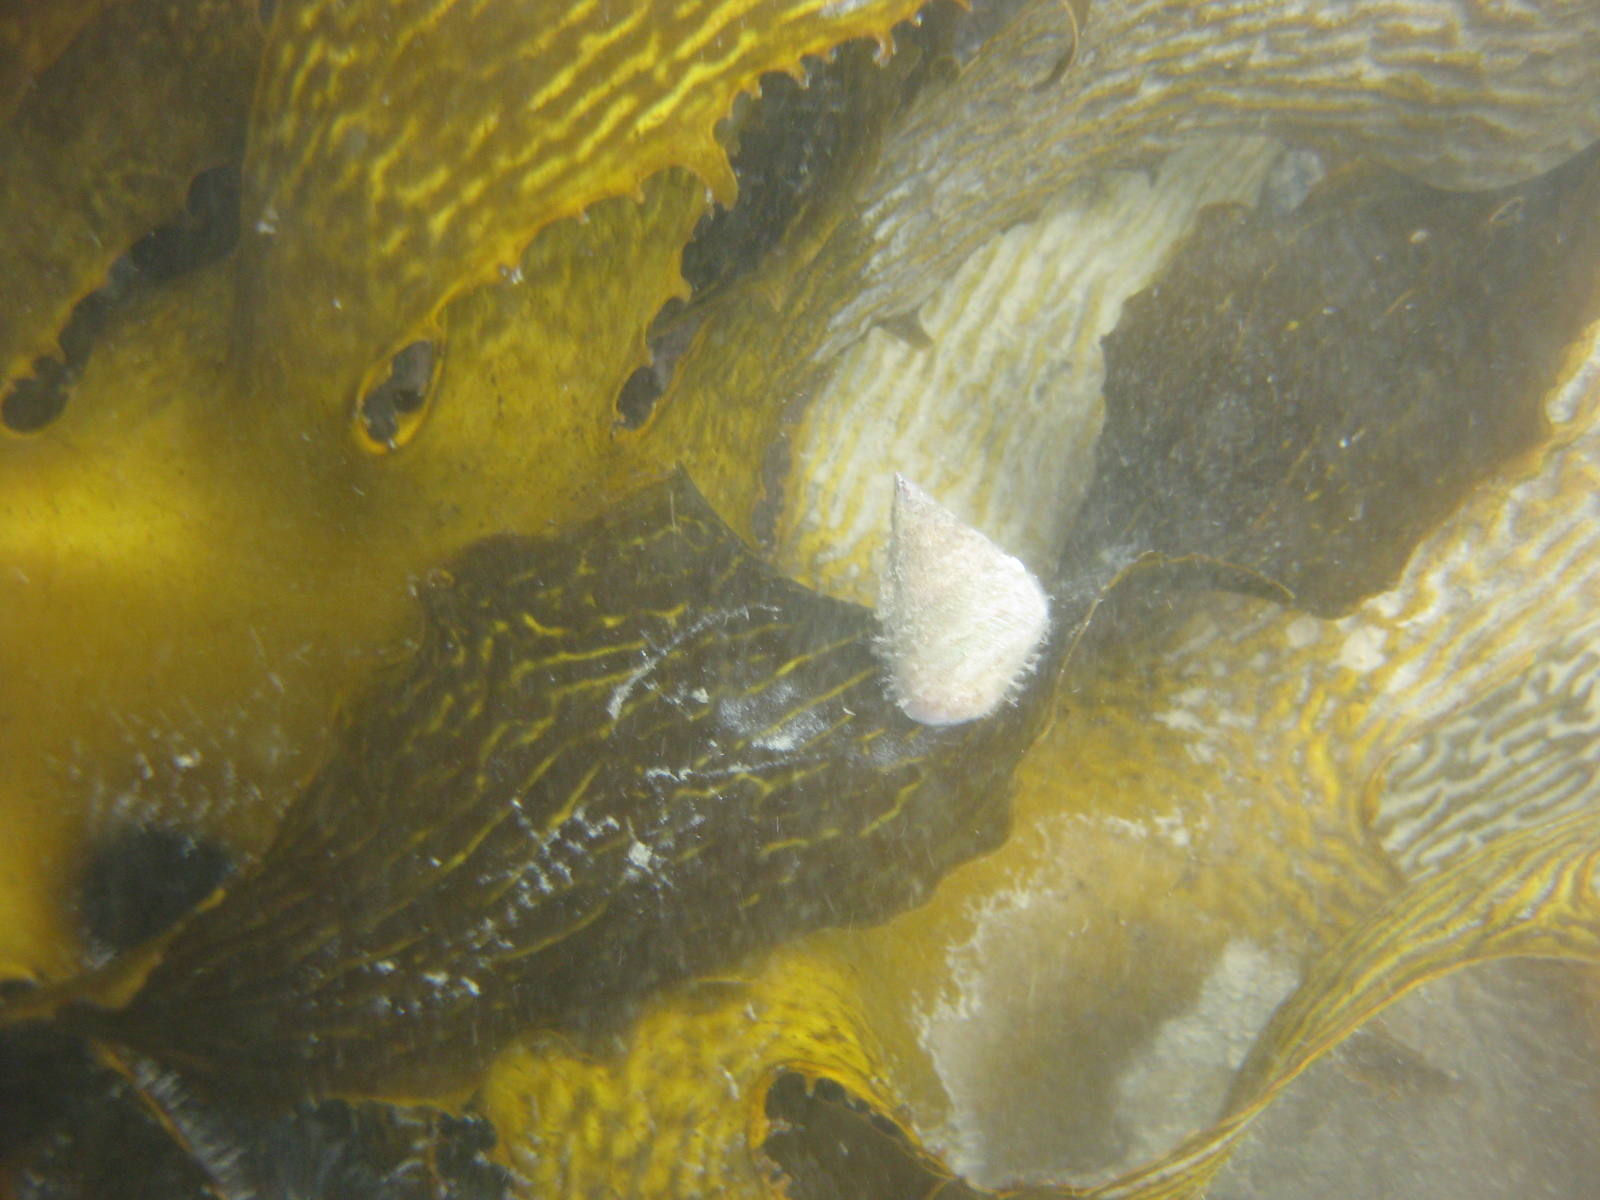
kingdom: Animalia
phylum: Mollusca
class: Gastropoda
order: Trochida
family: Trochidae
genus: Micrelenchus
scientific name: Micrelenchus purpureus
